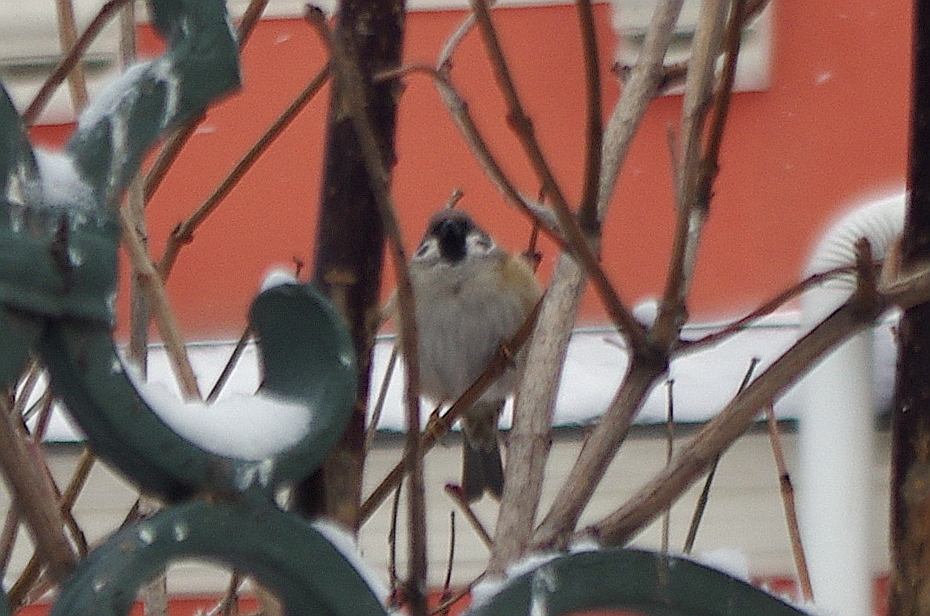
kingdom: Animalia
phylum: Chordata
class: Aves
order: Passeriformes
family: Passeridae
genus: Passer
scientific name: Passer montanus
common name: Eurasian tree sparrow
